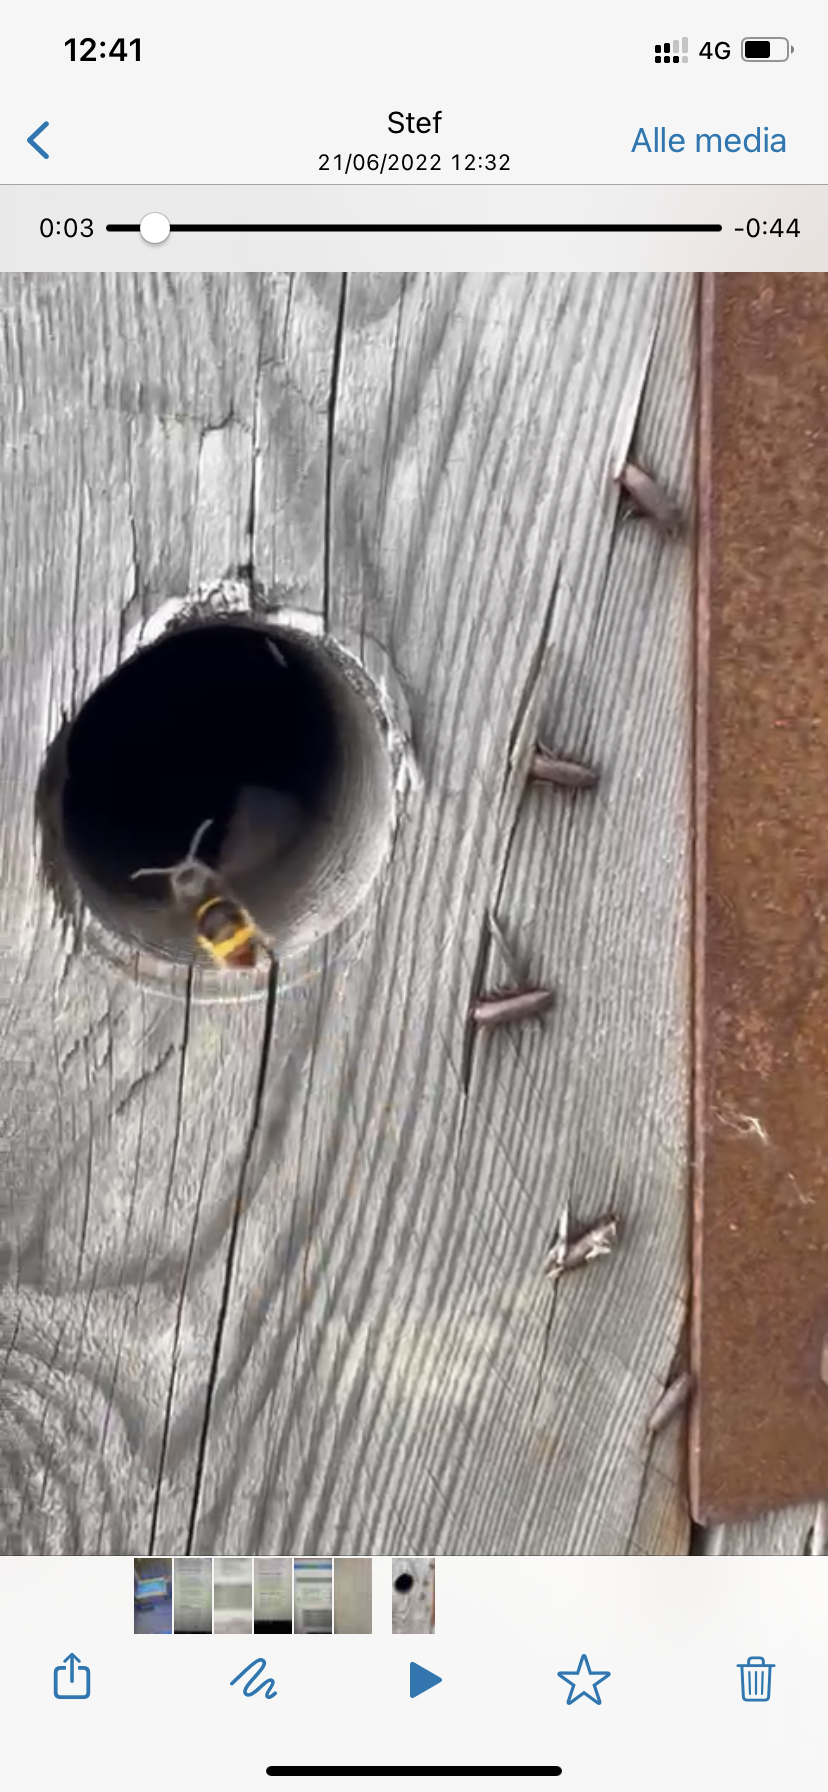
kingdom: Animalia
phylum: Arthropoda
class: Insecta
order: Hymenoptera
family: Vespidae
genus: Vespa
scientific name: Vespa velutina
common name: Asian hornet
